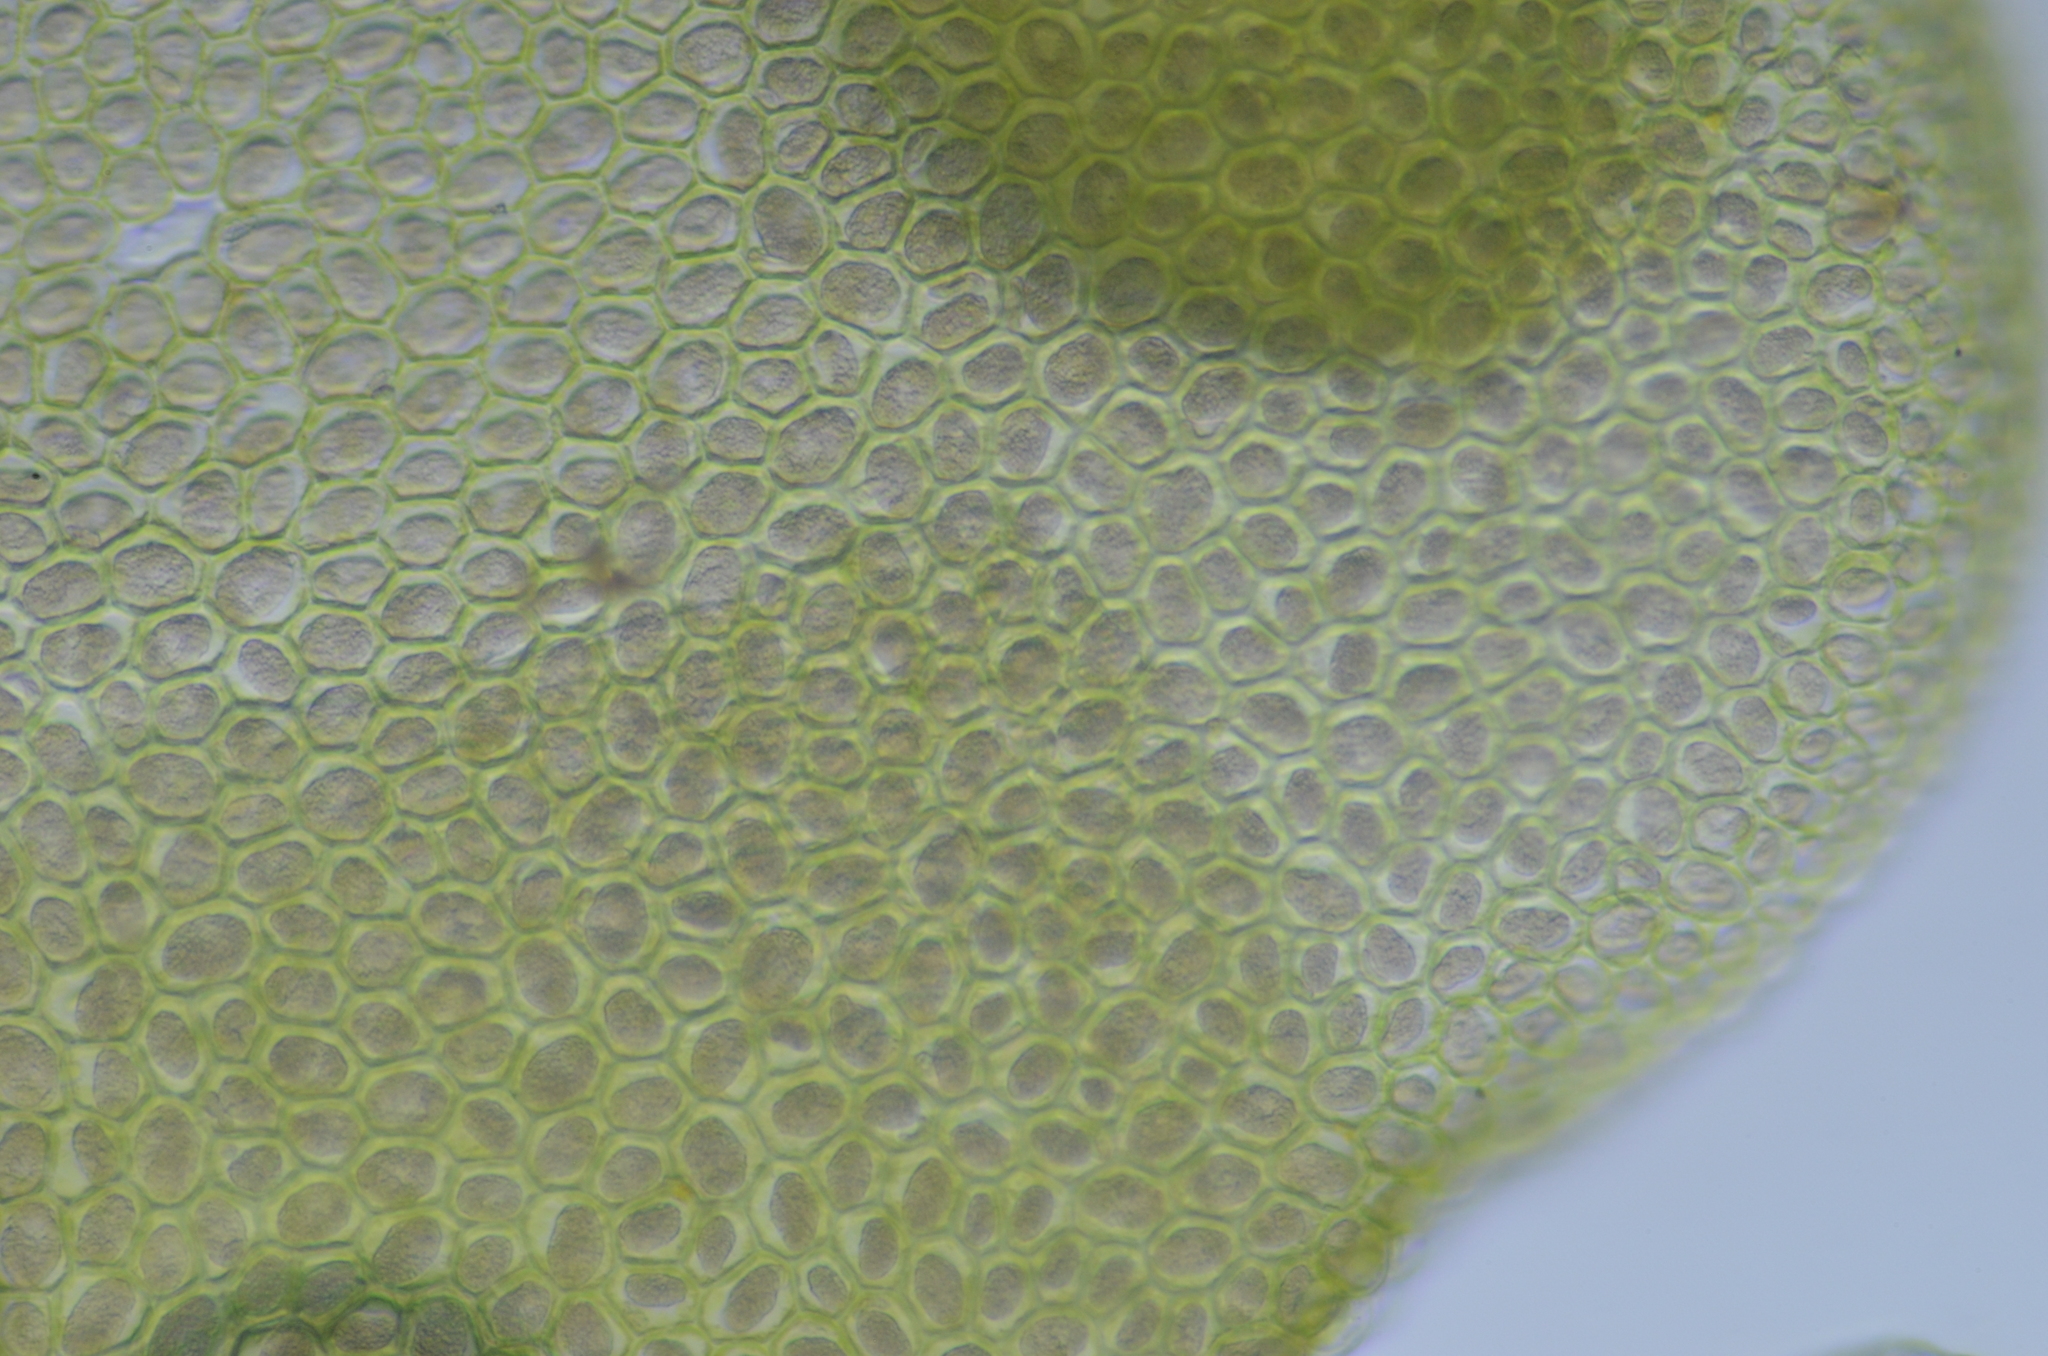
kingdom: Plantae
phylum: Marchantiophyta
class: Jungermanniopsida
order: Porellales
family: Radulaceae
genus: Radula
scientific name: Radula obtusiloba
